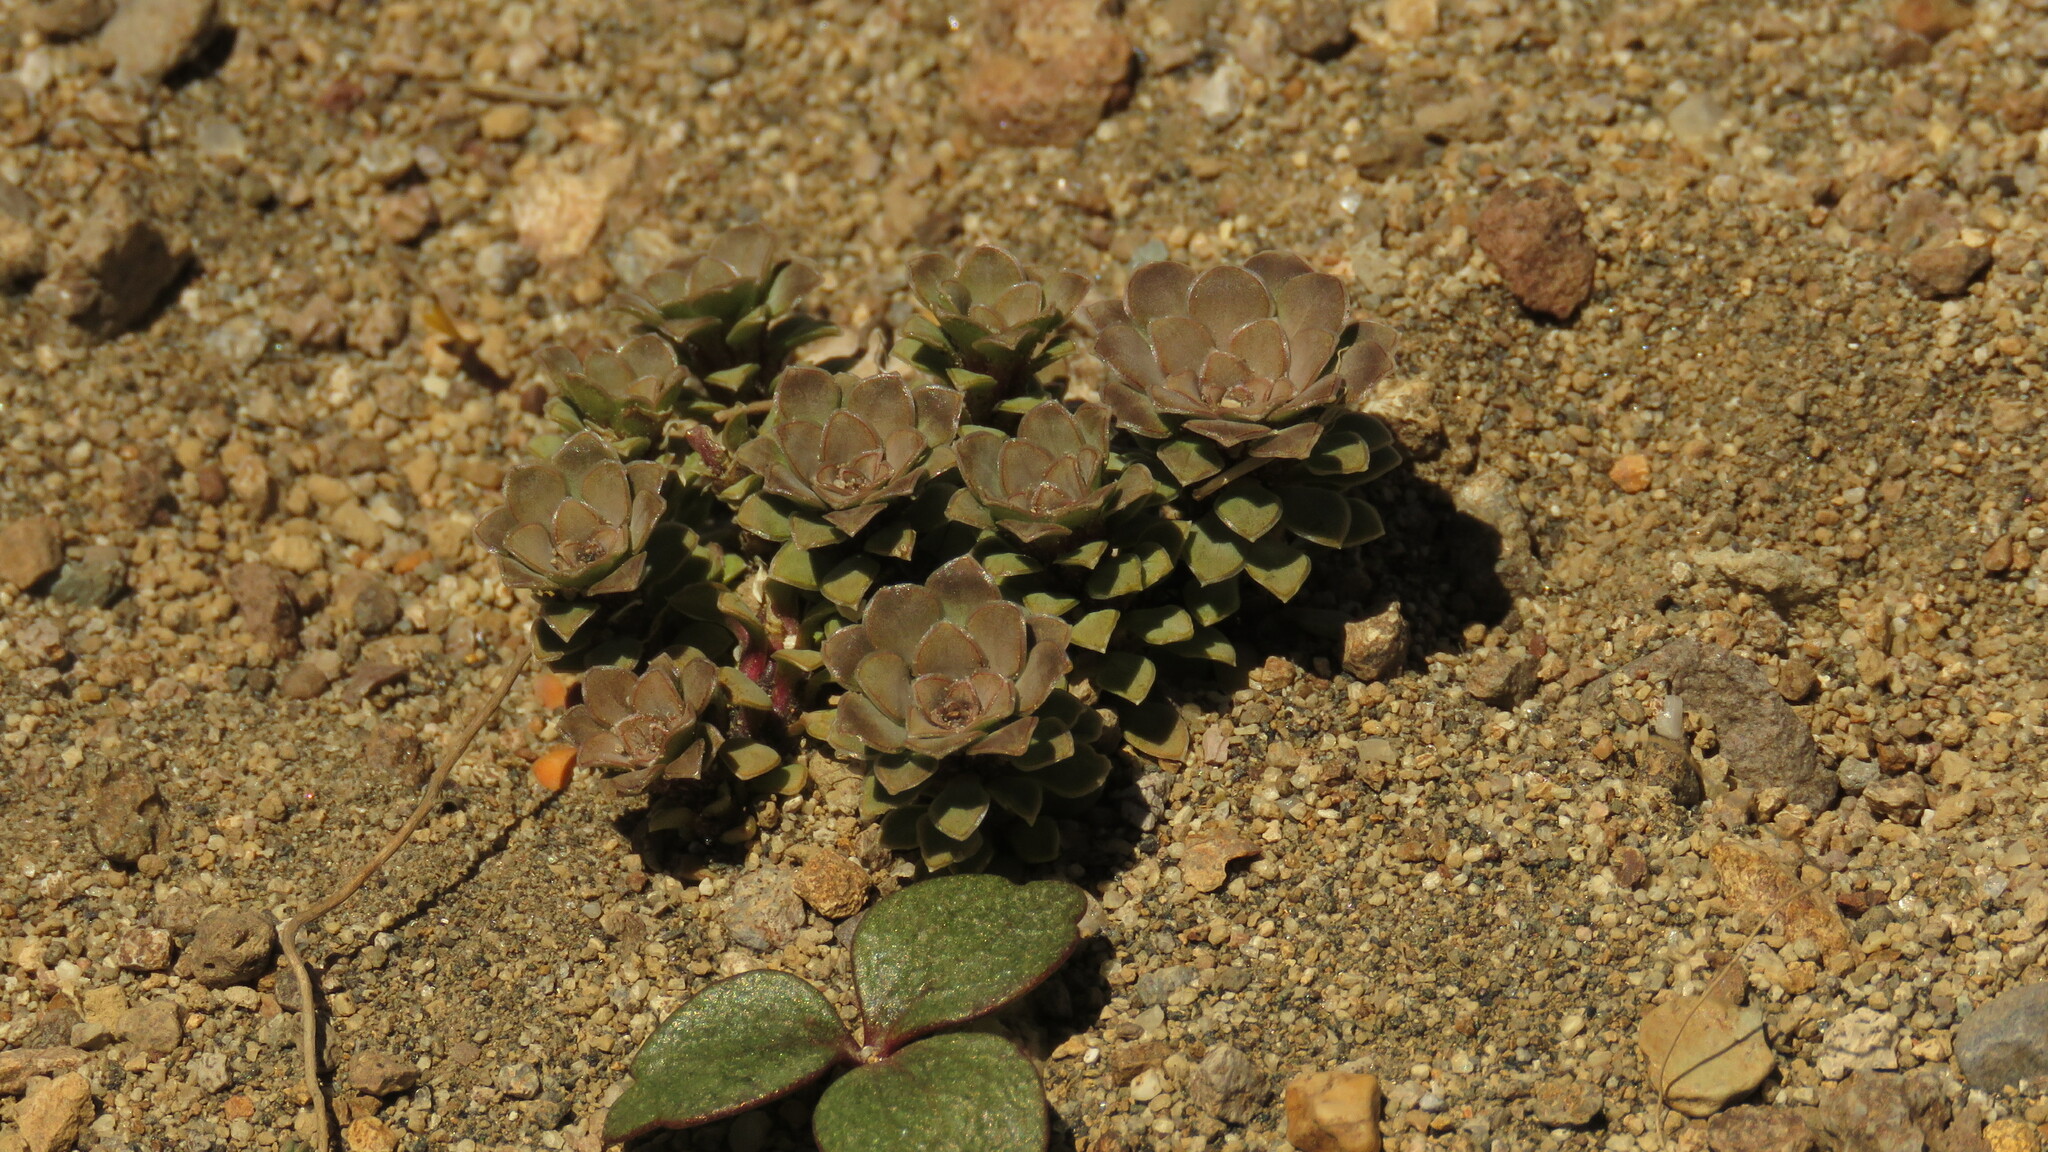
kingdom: Plantae
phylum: Tracheophyta
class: Magnoliopsida
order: Malpighiales
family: Violaceae
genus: Viola
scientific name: Viola columnaris
